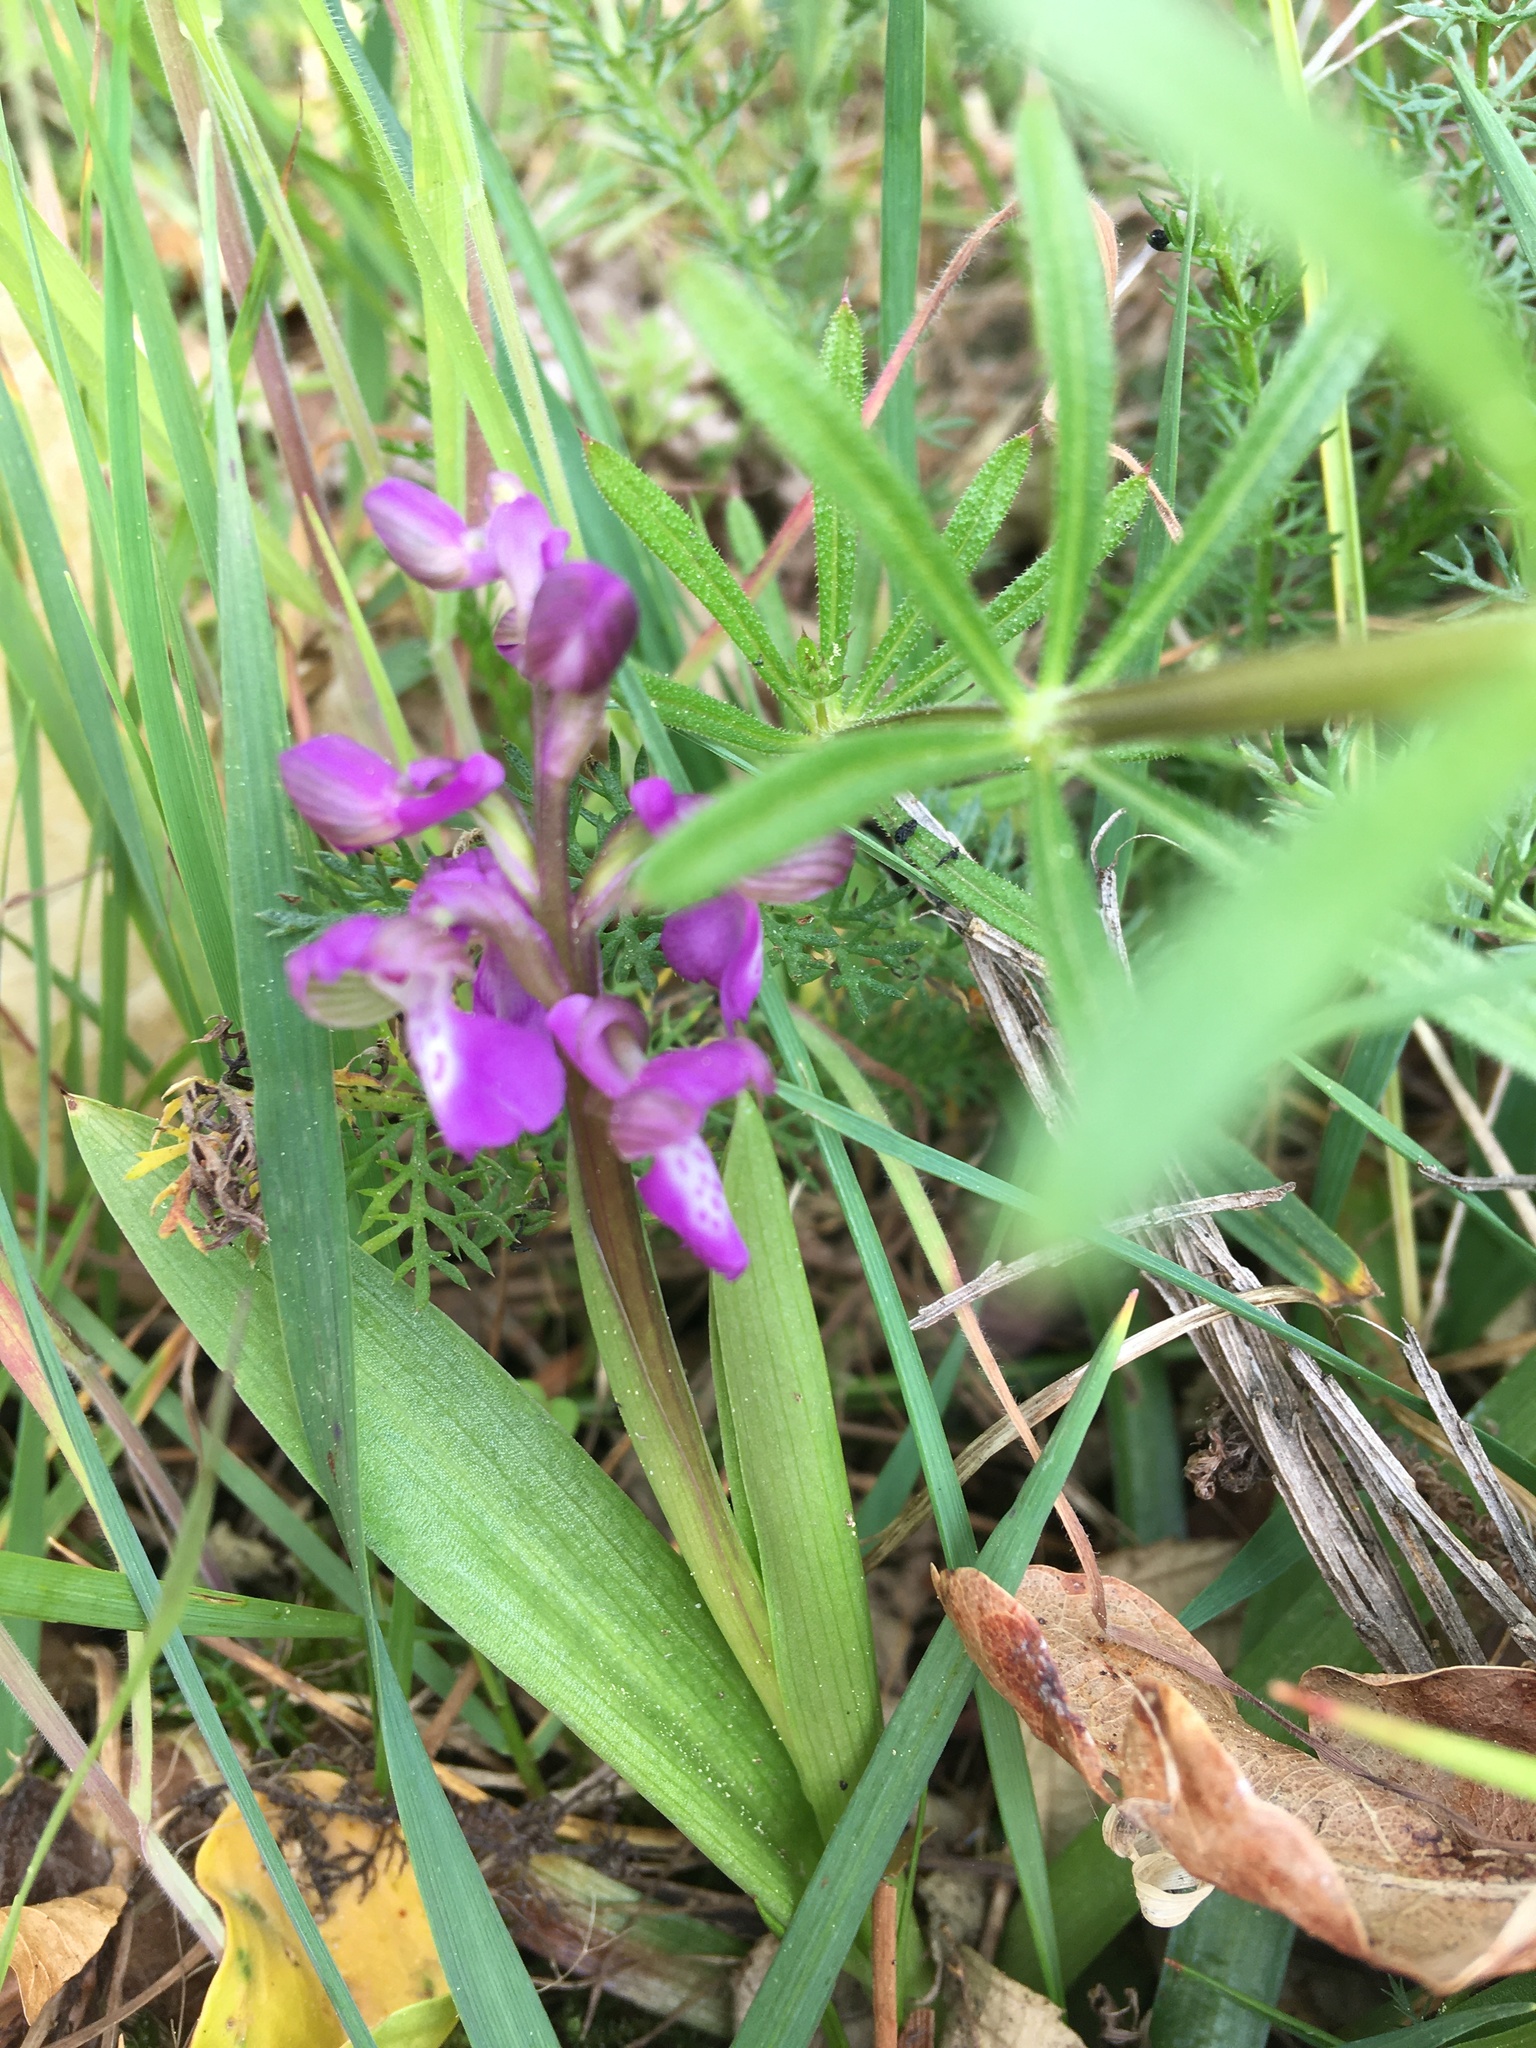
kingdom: Plantae
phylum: Tracheophyta
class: Liliopsida
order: Asparagales
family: Orchidaceae
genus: Anacamptis
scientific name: Anacamptis morio
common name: Green-winged orchid
